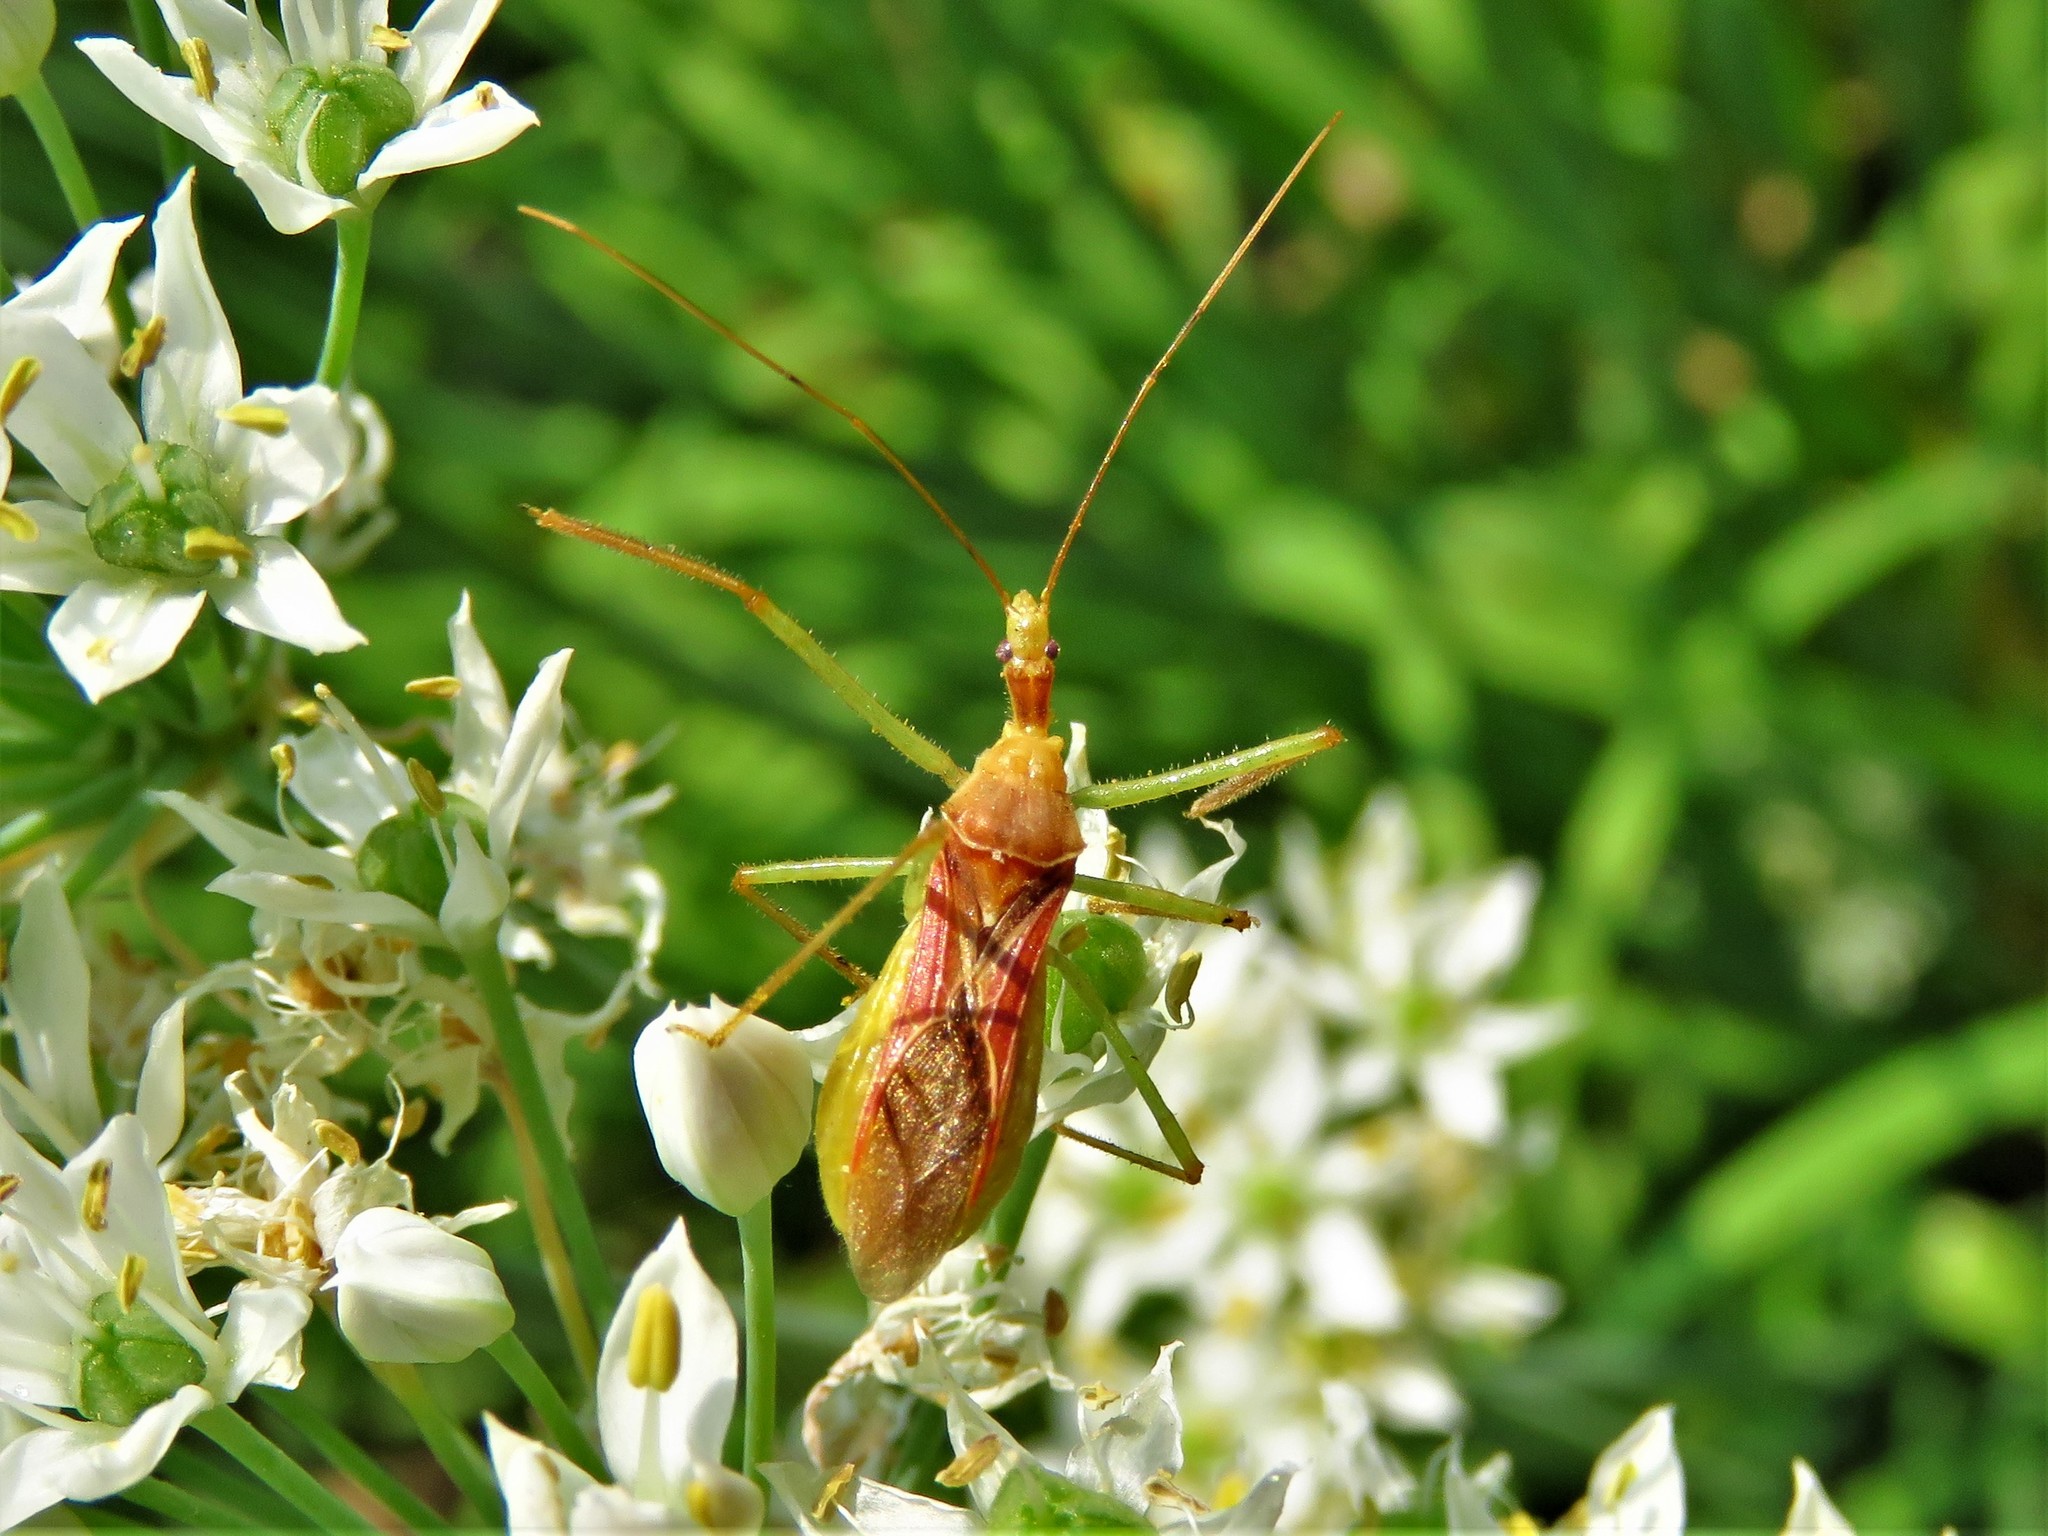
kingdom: Animalia
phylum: Arthropoda
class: Insecta
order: Hemiptera
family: Reduviidae
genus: Zelus
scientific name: Zelus renardii
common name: Assassin bug
